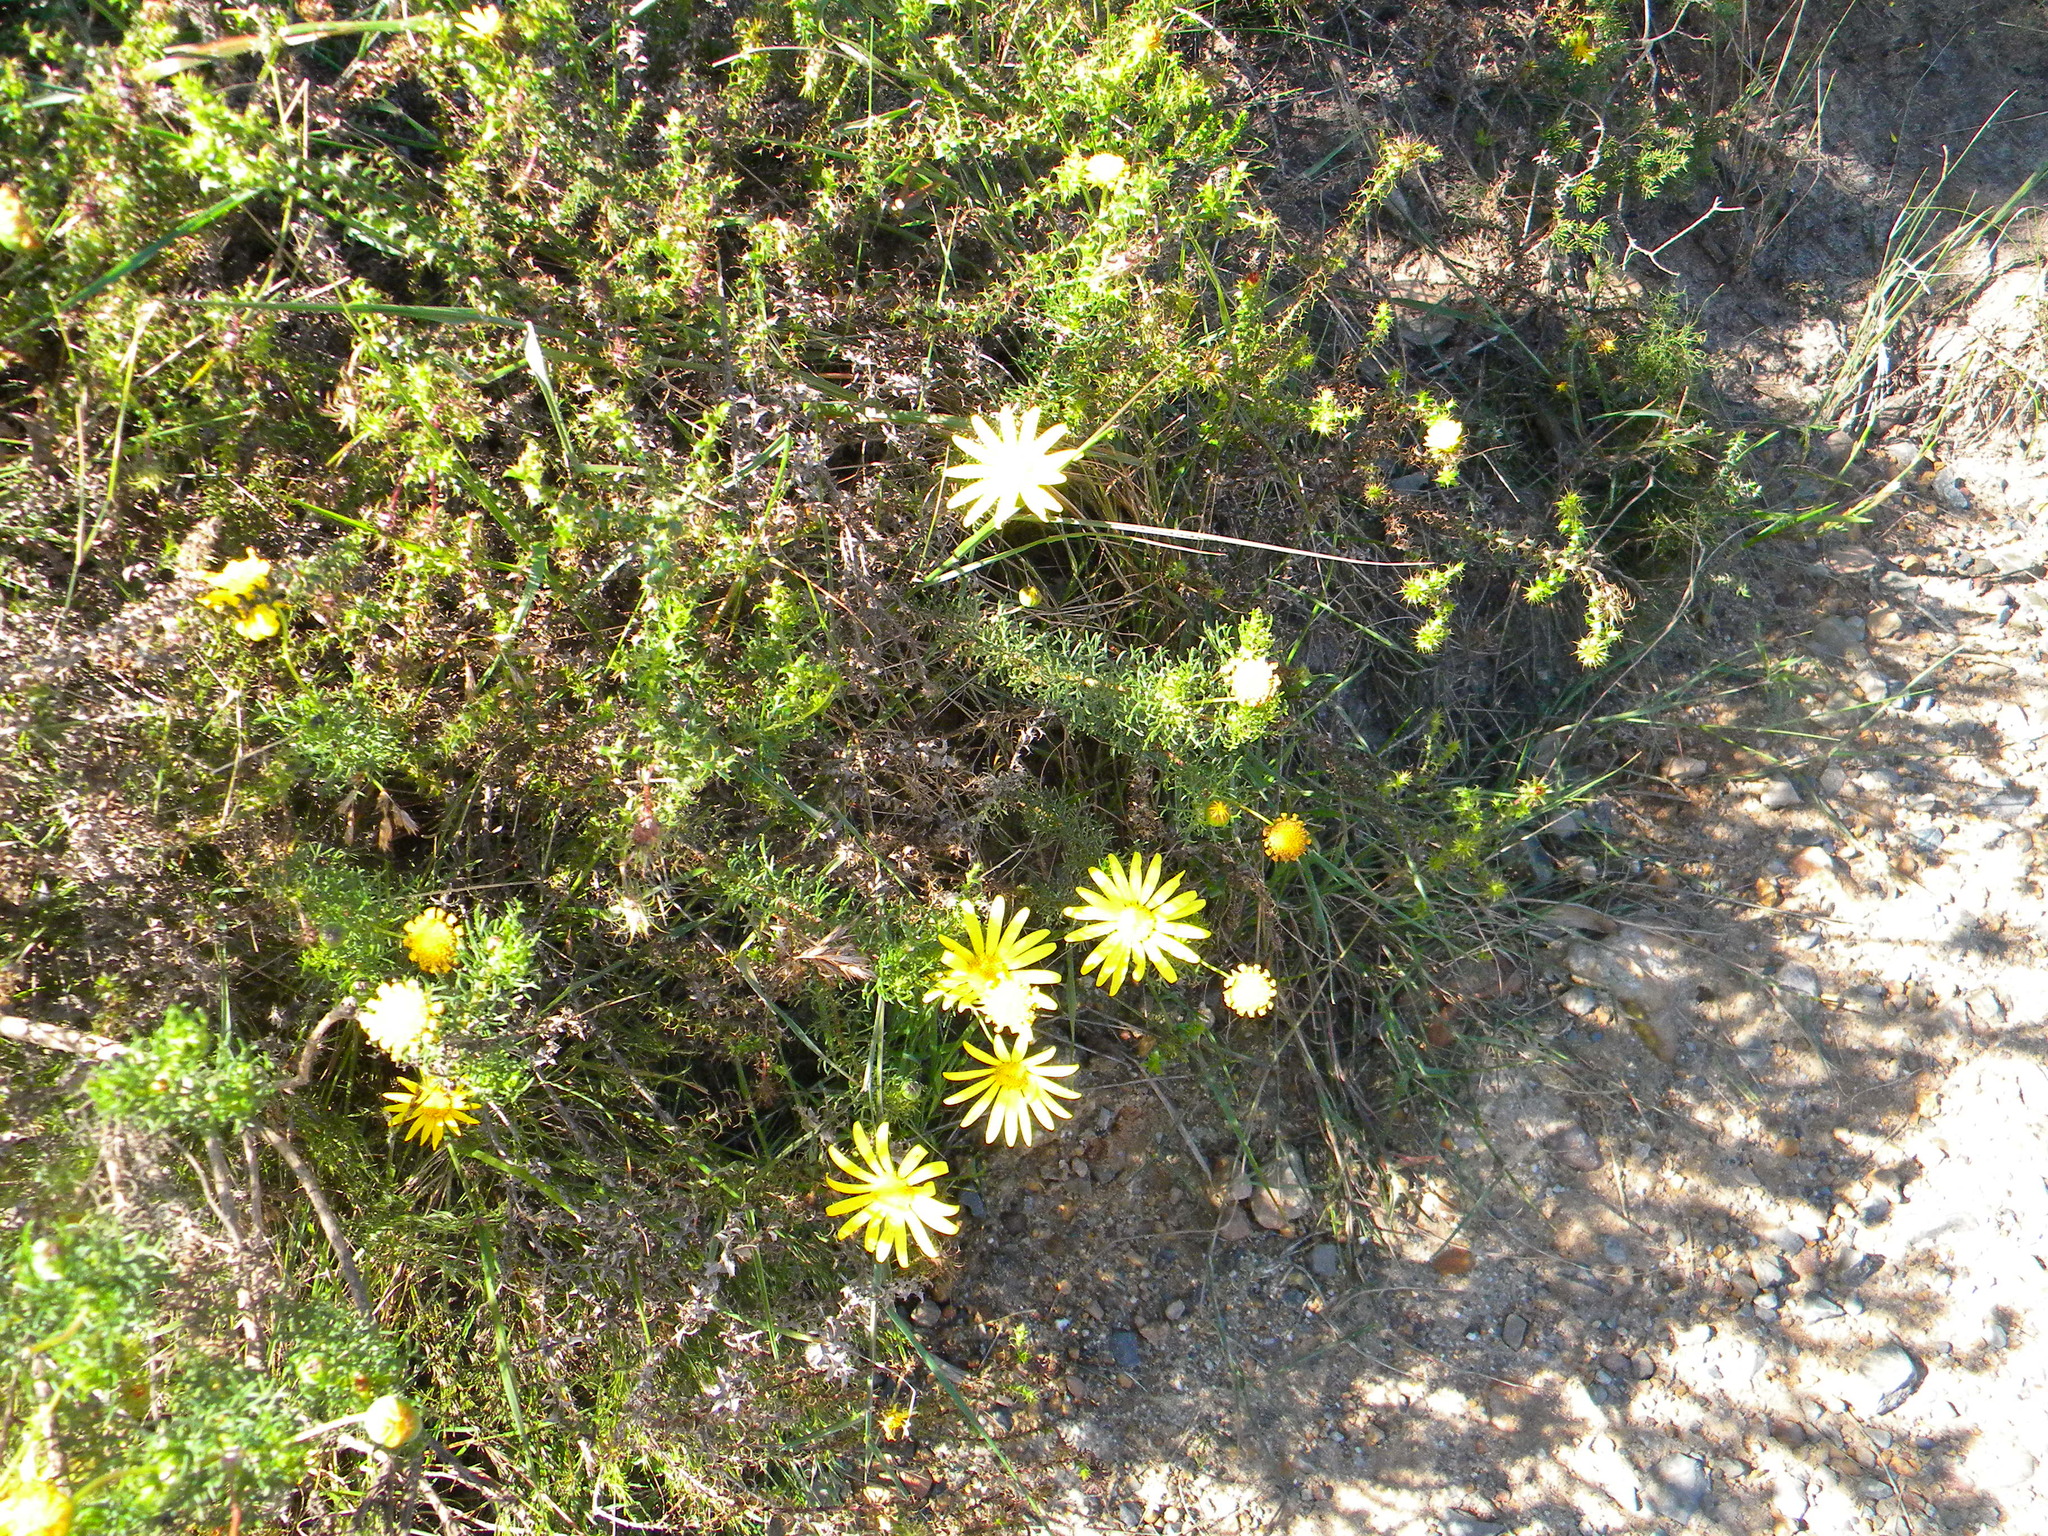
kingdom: Plantae
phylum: Tracheophyta
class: Magnoliopsida
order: Asterales
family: Asteraceae
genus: Euryops
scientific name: Euryops abrotanifolius
